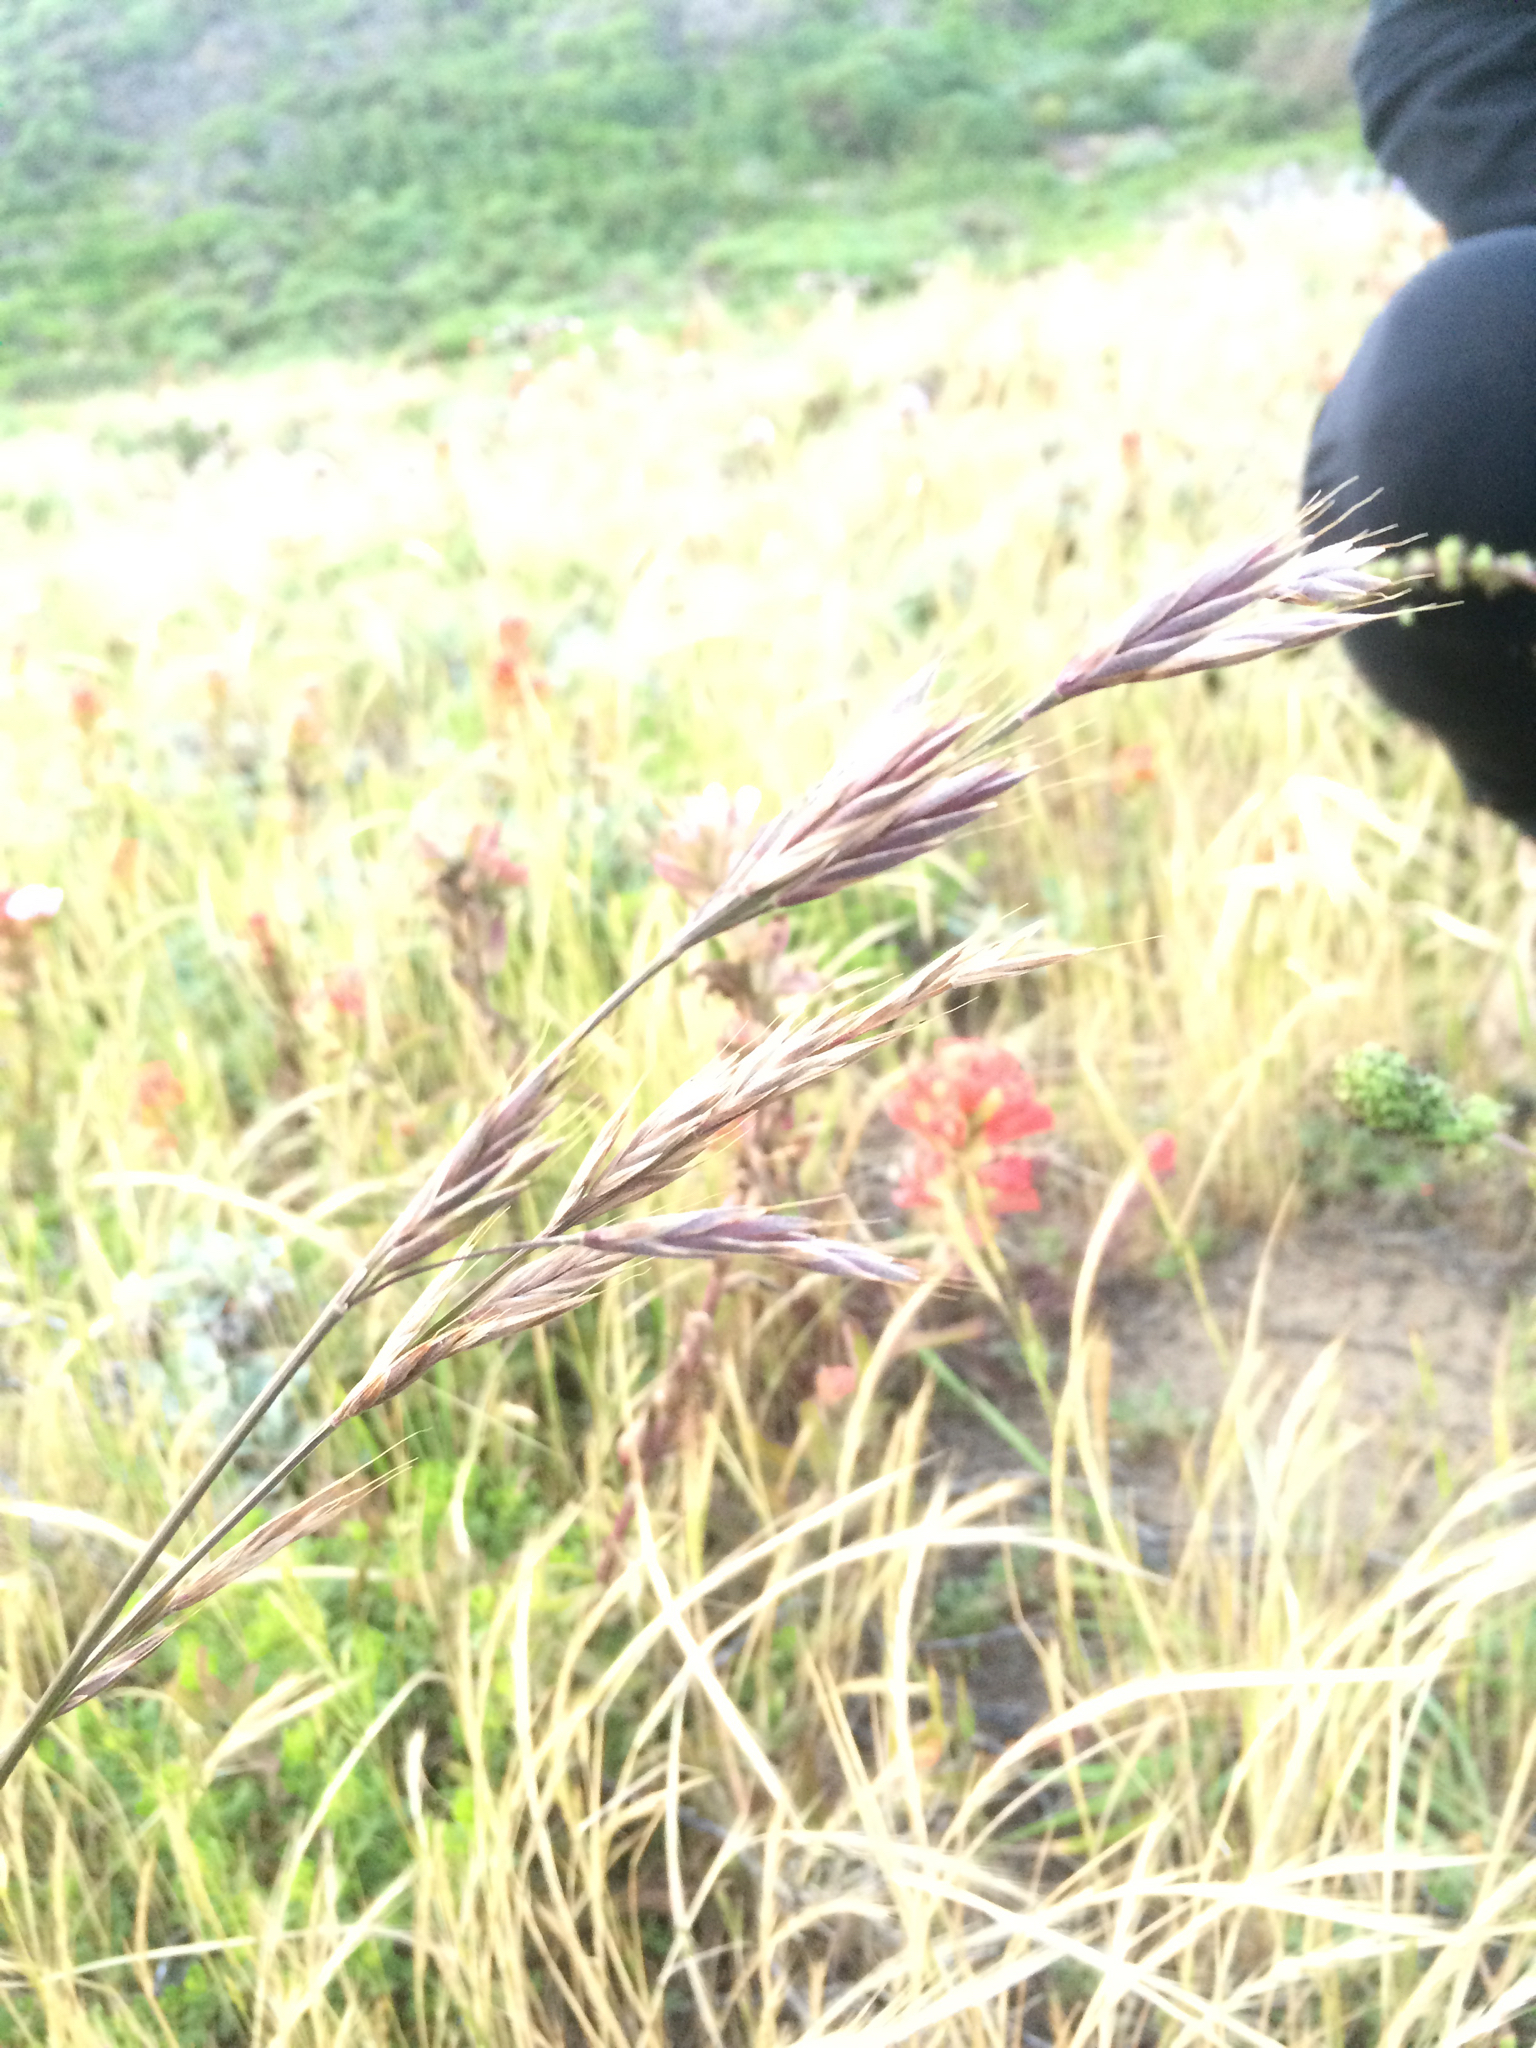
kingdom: Plantae
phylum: Tracheophyta
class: Liliopsida
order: Poales
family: Poaceae
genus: Bromus
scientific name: Bromus maritimus
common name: Maritime brome
